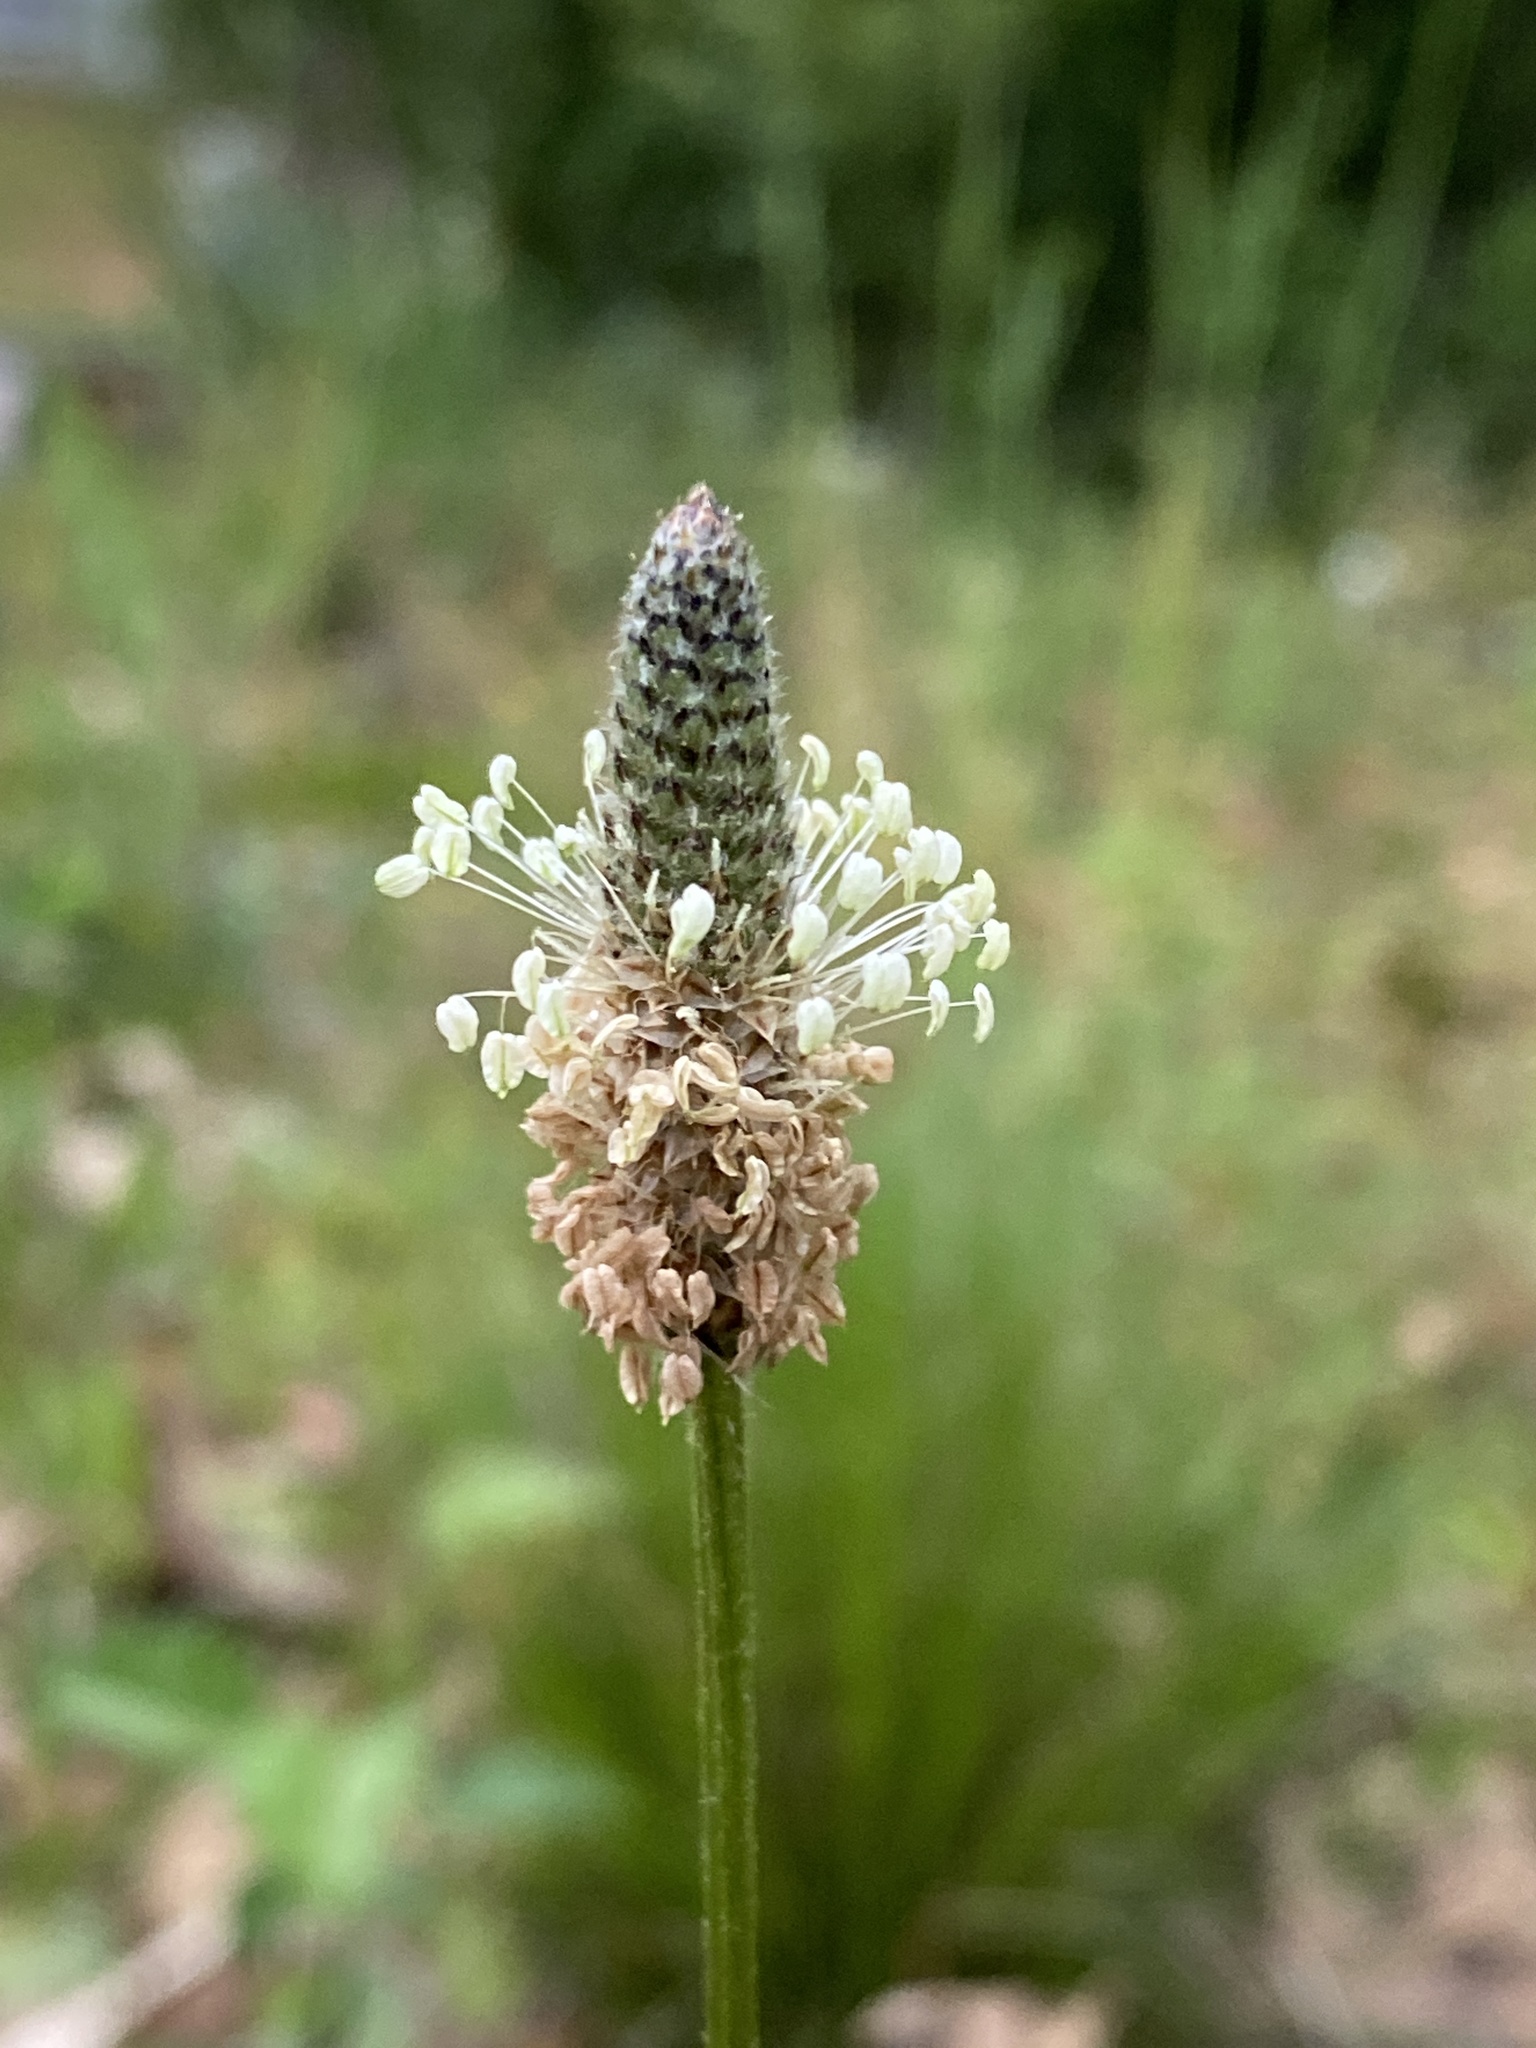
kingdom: Plantae
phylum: Tracheophyta
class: Magnoliopsida
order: Lamiales
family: Plantaginaceae
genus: Plantago
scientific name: Plantago lanceolata
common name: Ribwort plantain
